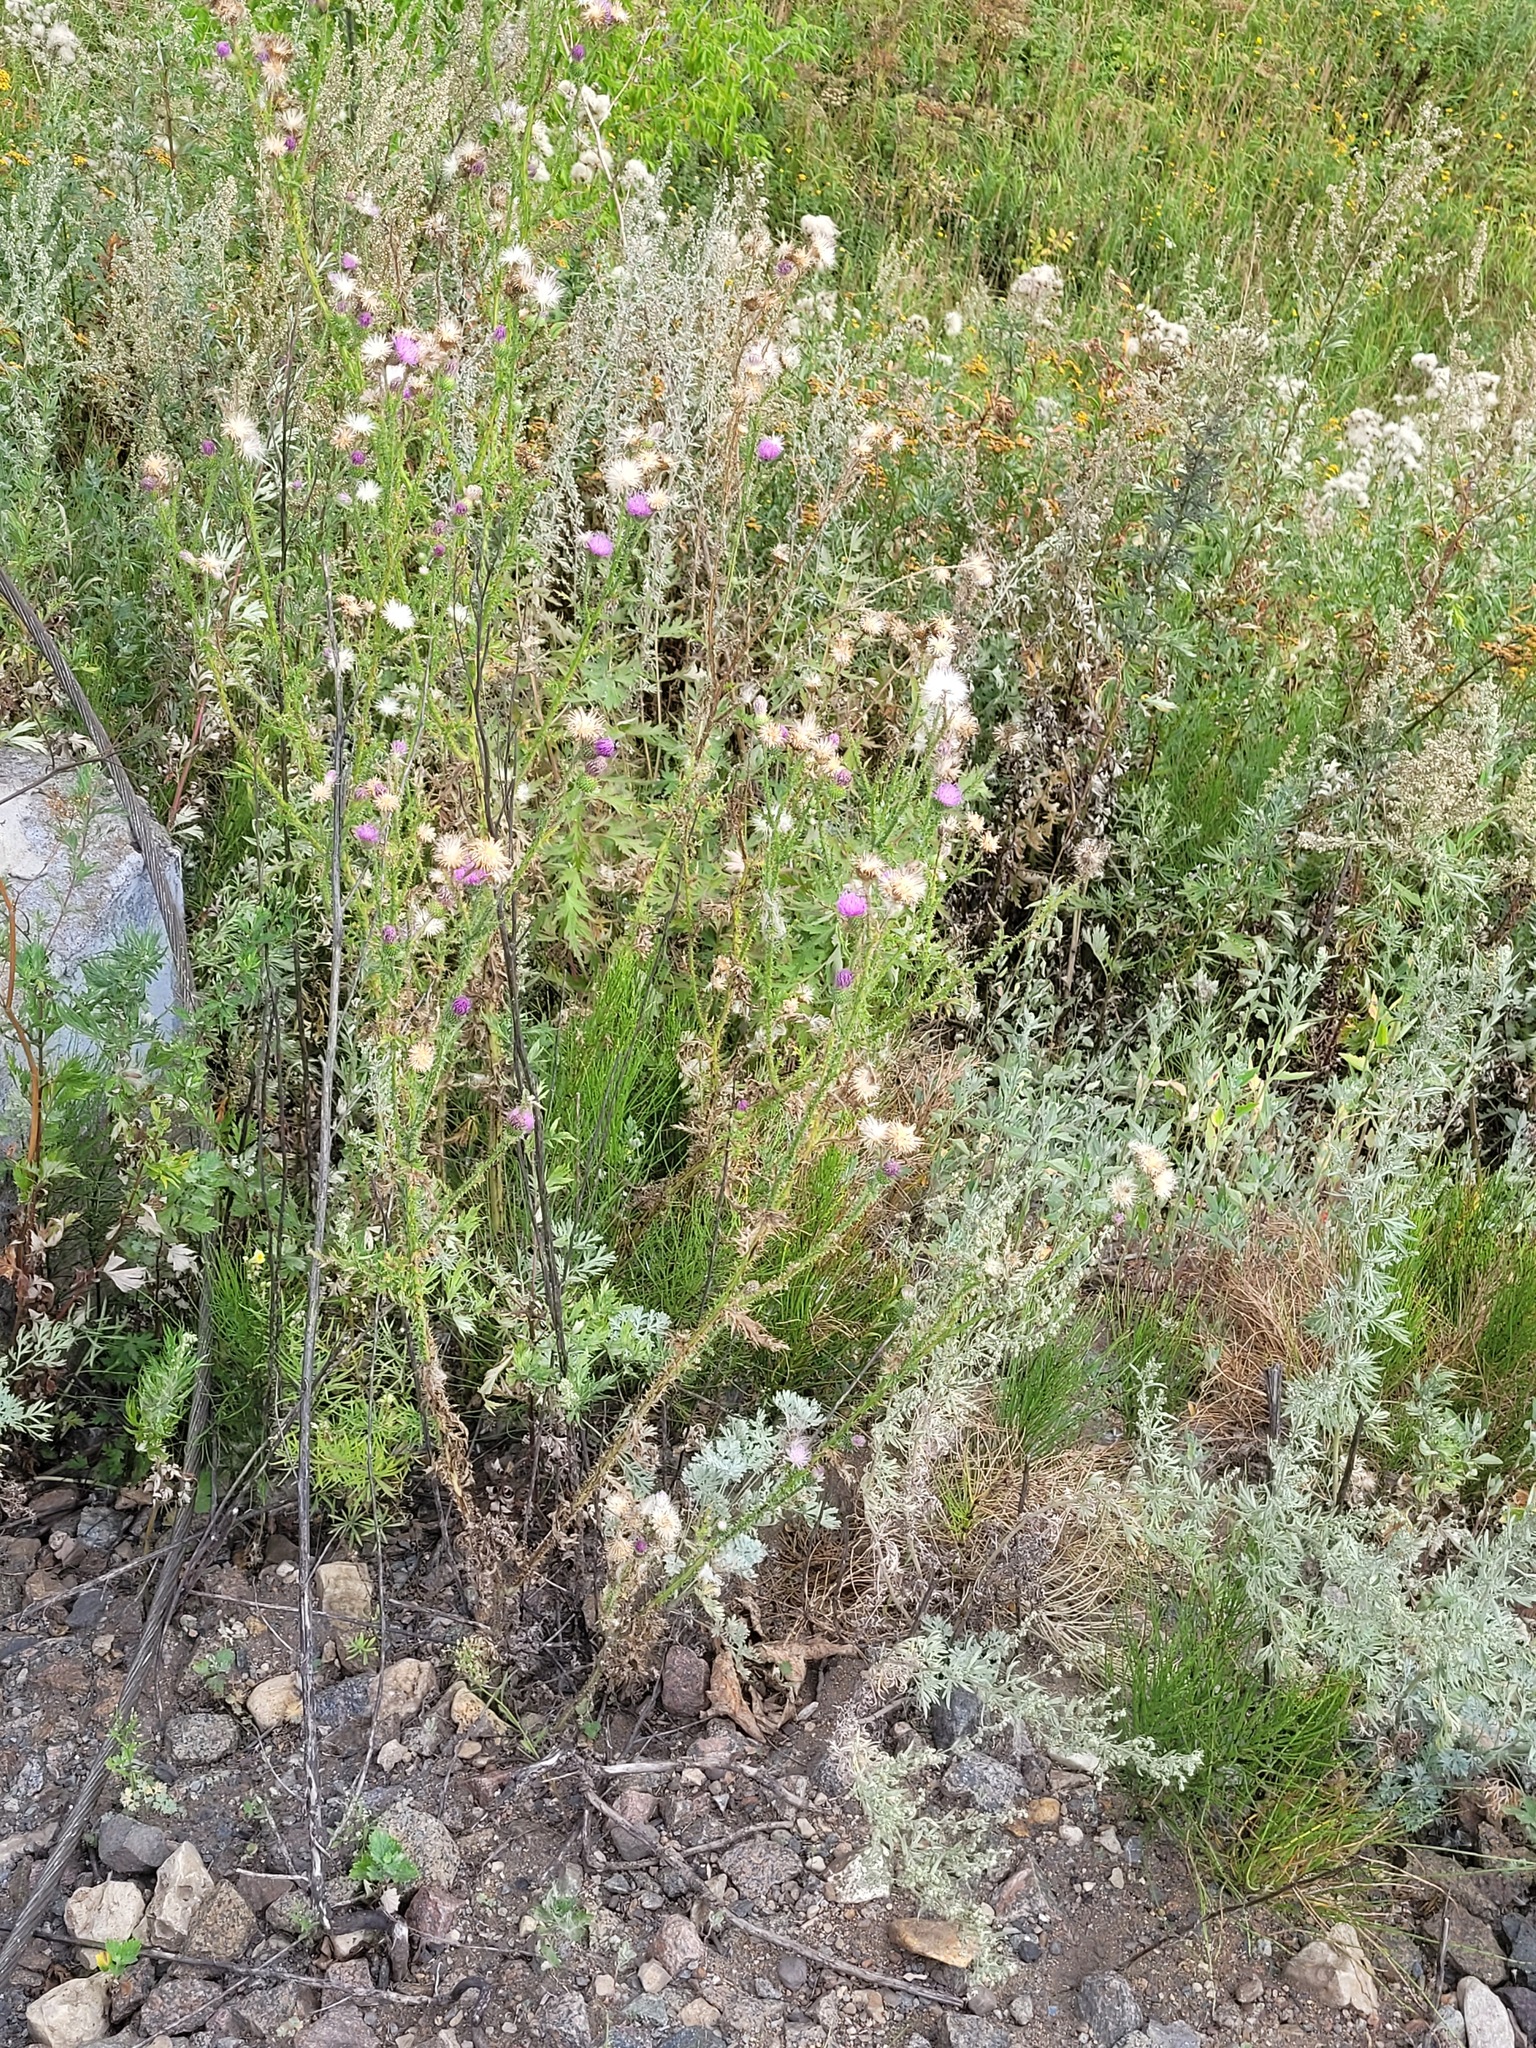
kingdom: Plantae
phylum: Tracheophyta
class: Magnoliopsida
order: Asterales
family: Asteraceae
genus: Carduus
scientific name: Carduus acanthoides
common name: Plumeless thistle
